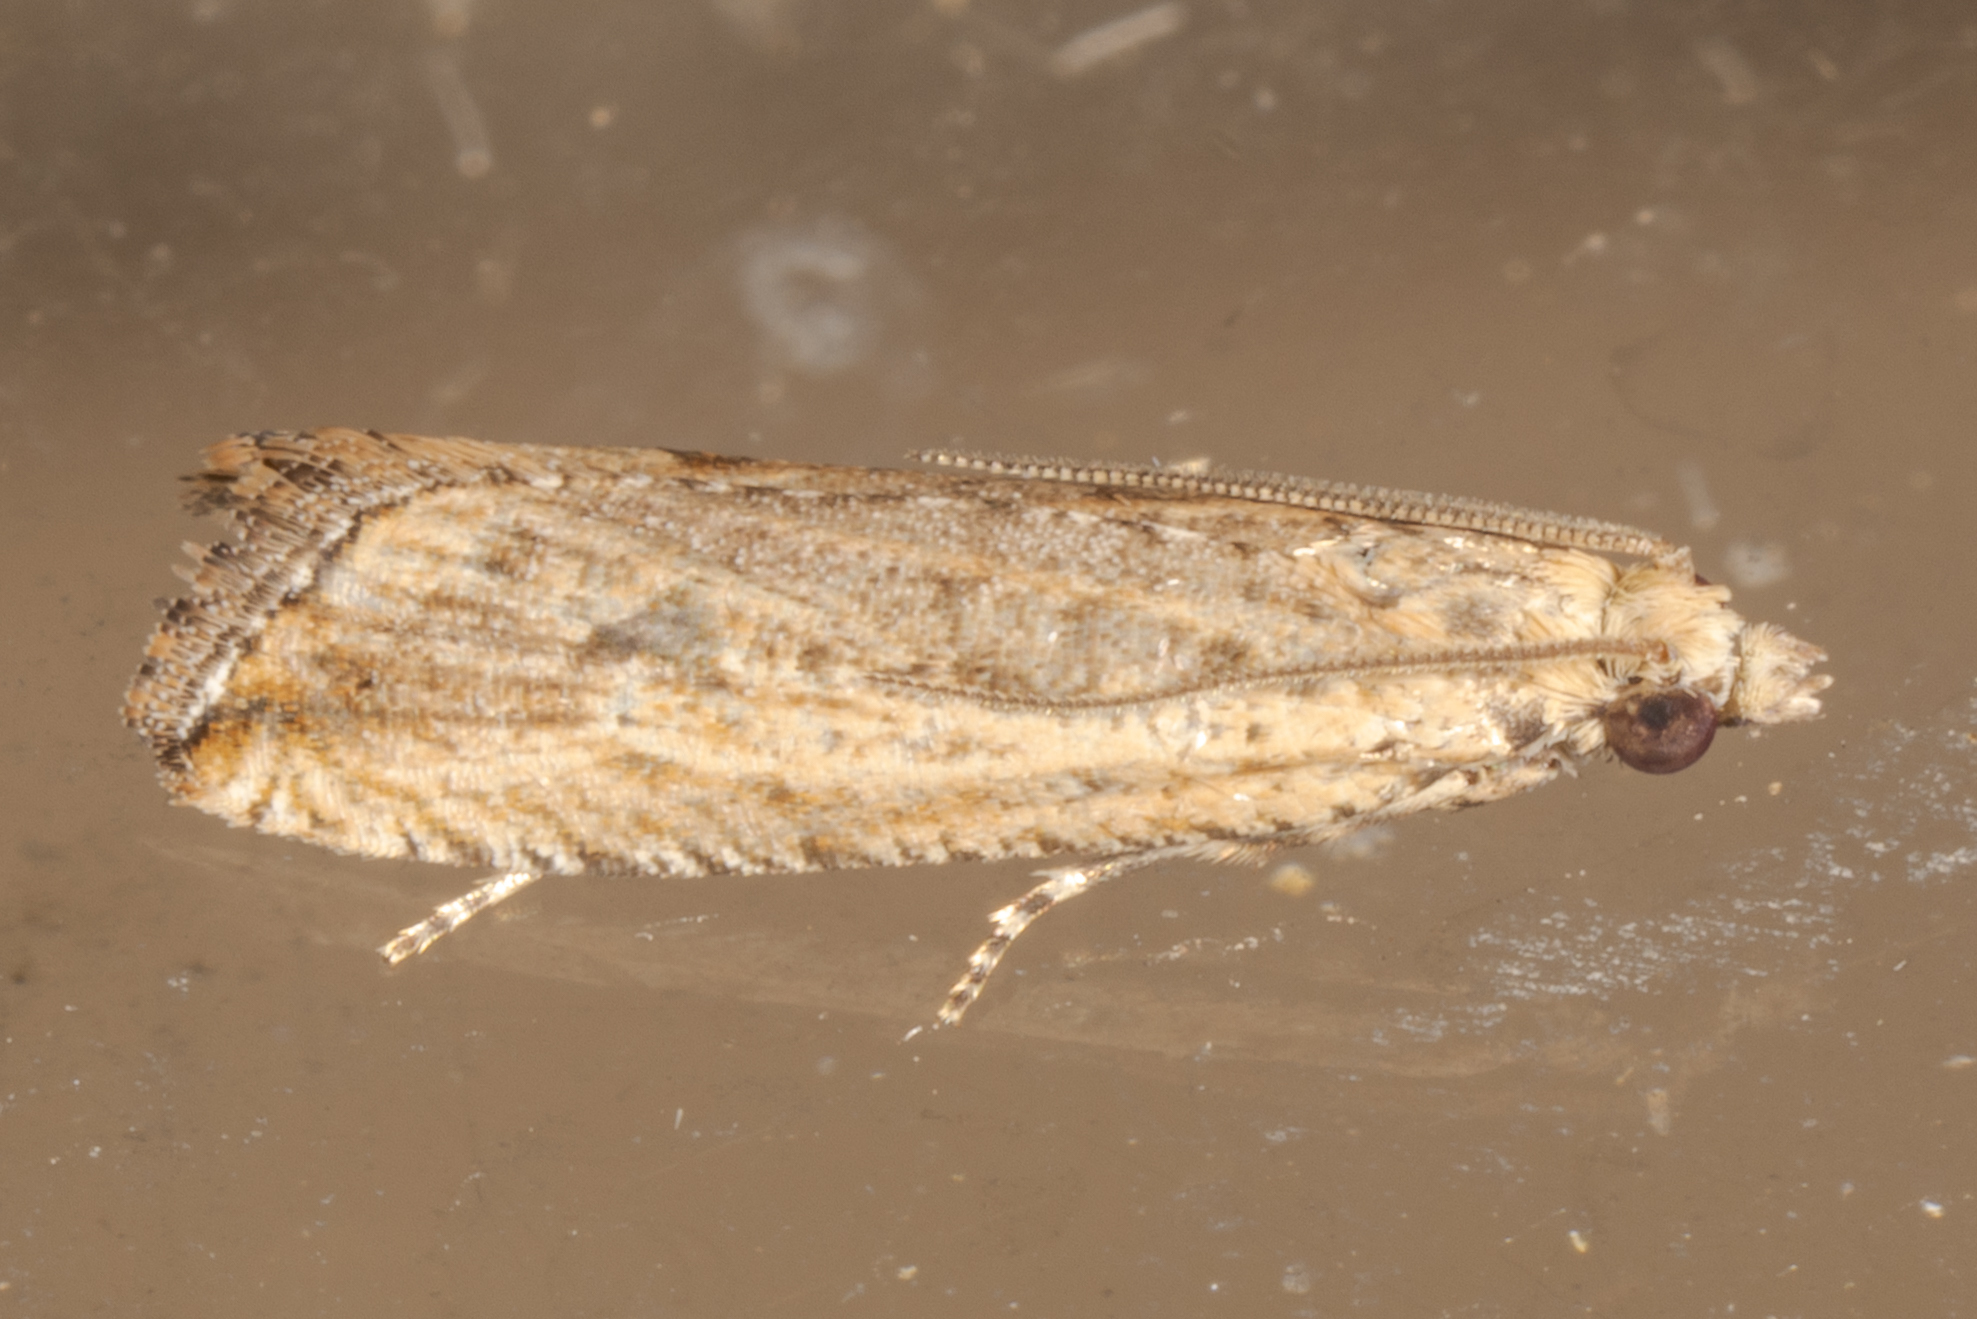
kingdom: Animalia
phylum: Arthropoda
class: Insecta
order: Lepidoptera
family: Tortricidae
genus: Bactra
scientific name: Bactra verutana
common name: Javelin moth
